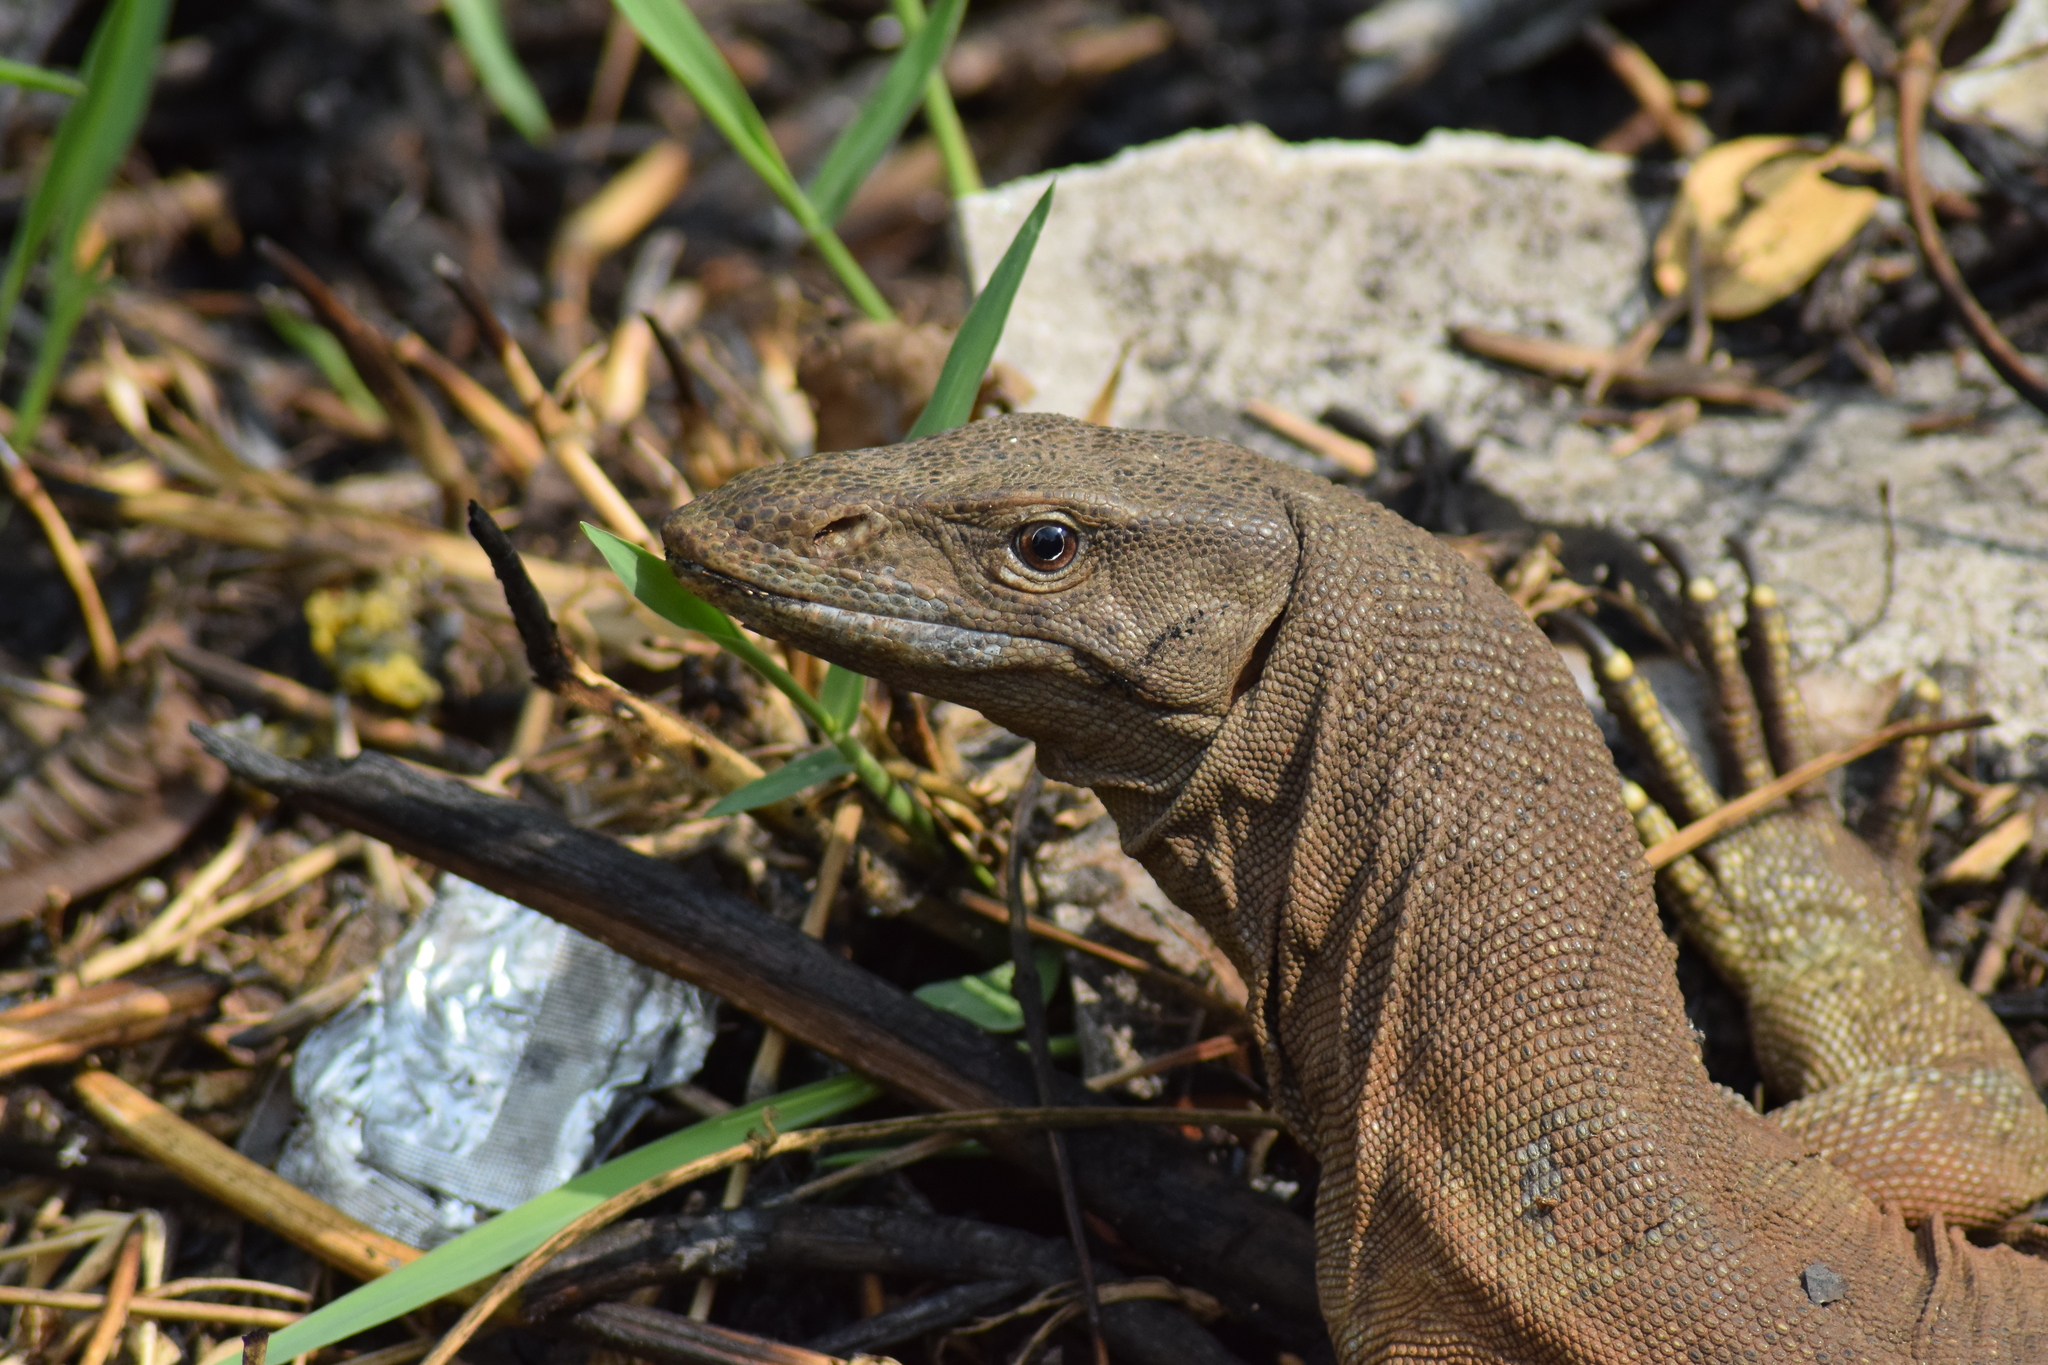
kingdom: Animalia
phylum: Chordata
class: Squamata
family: Varanidae
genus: Varanus
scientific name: Varanus bengalensis
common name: Bengal monitor
